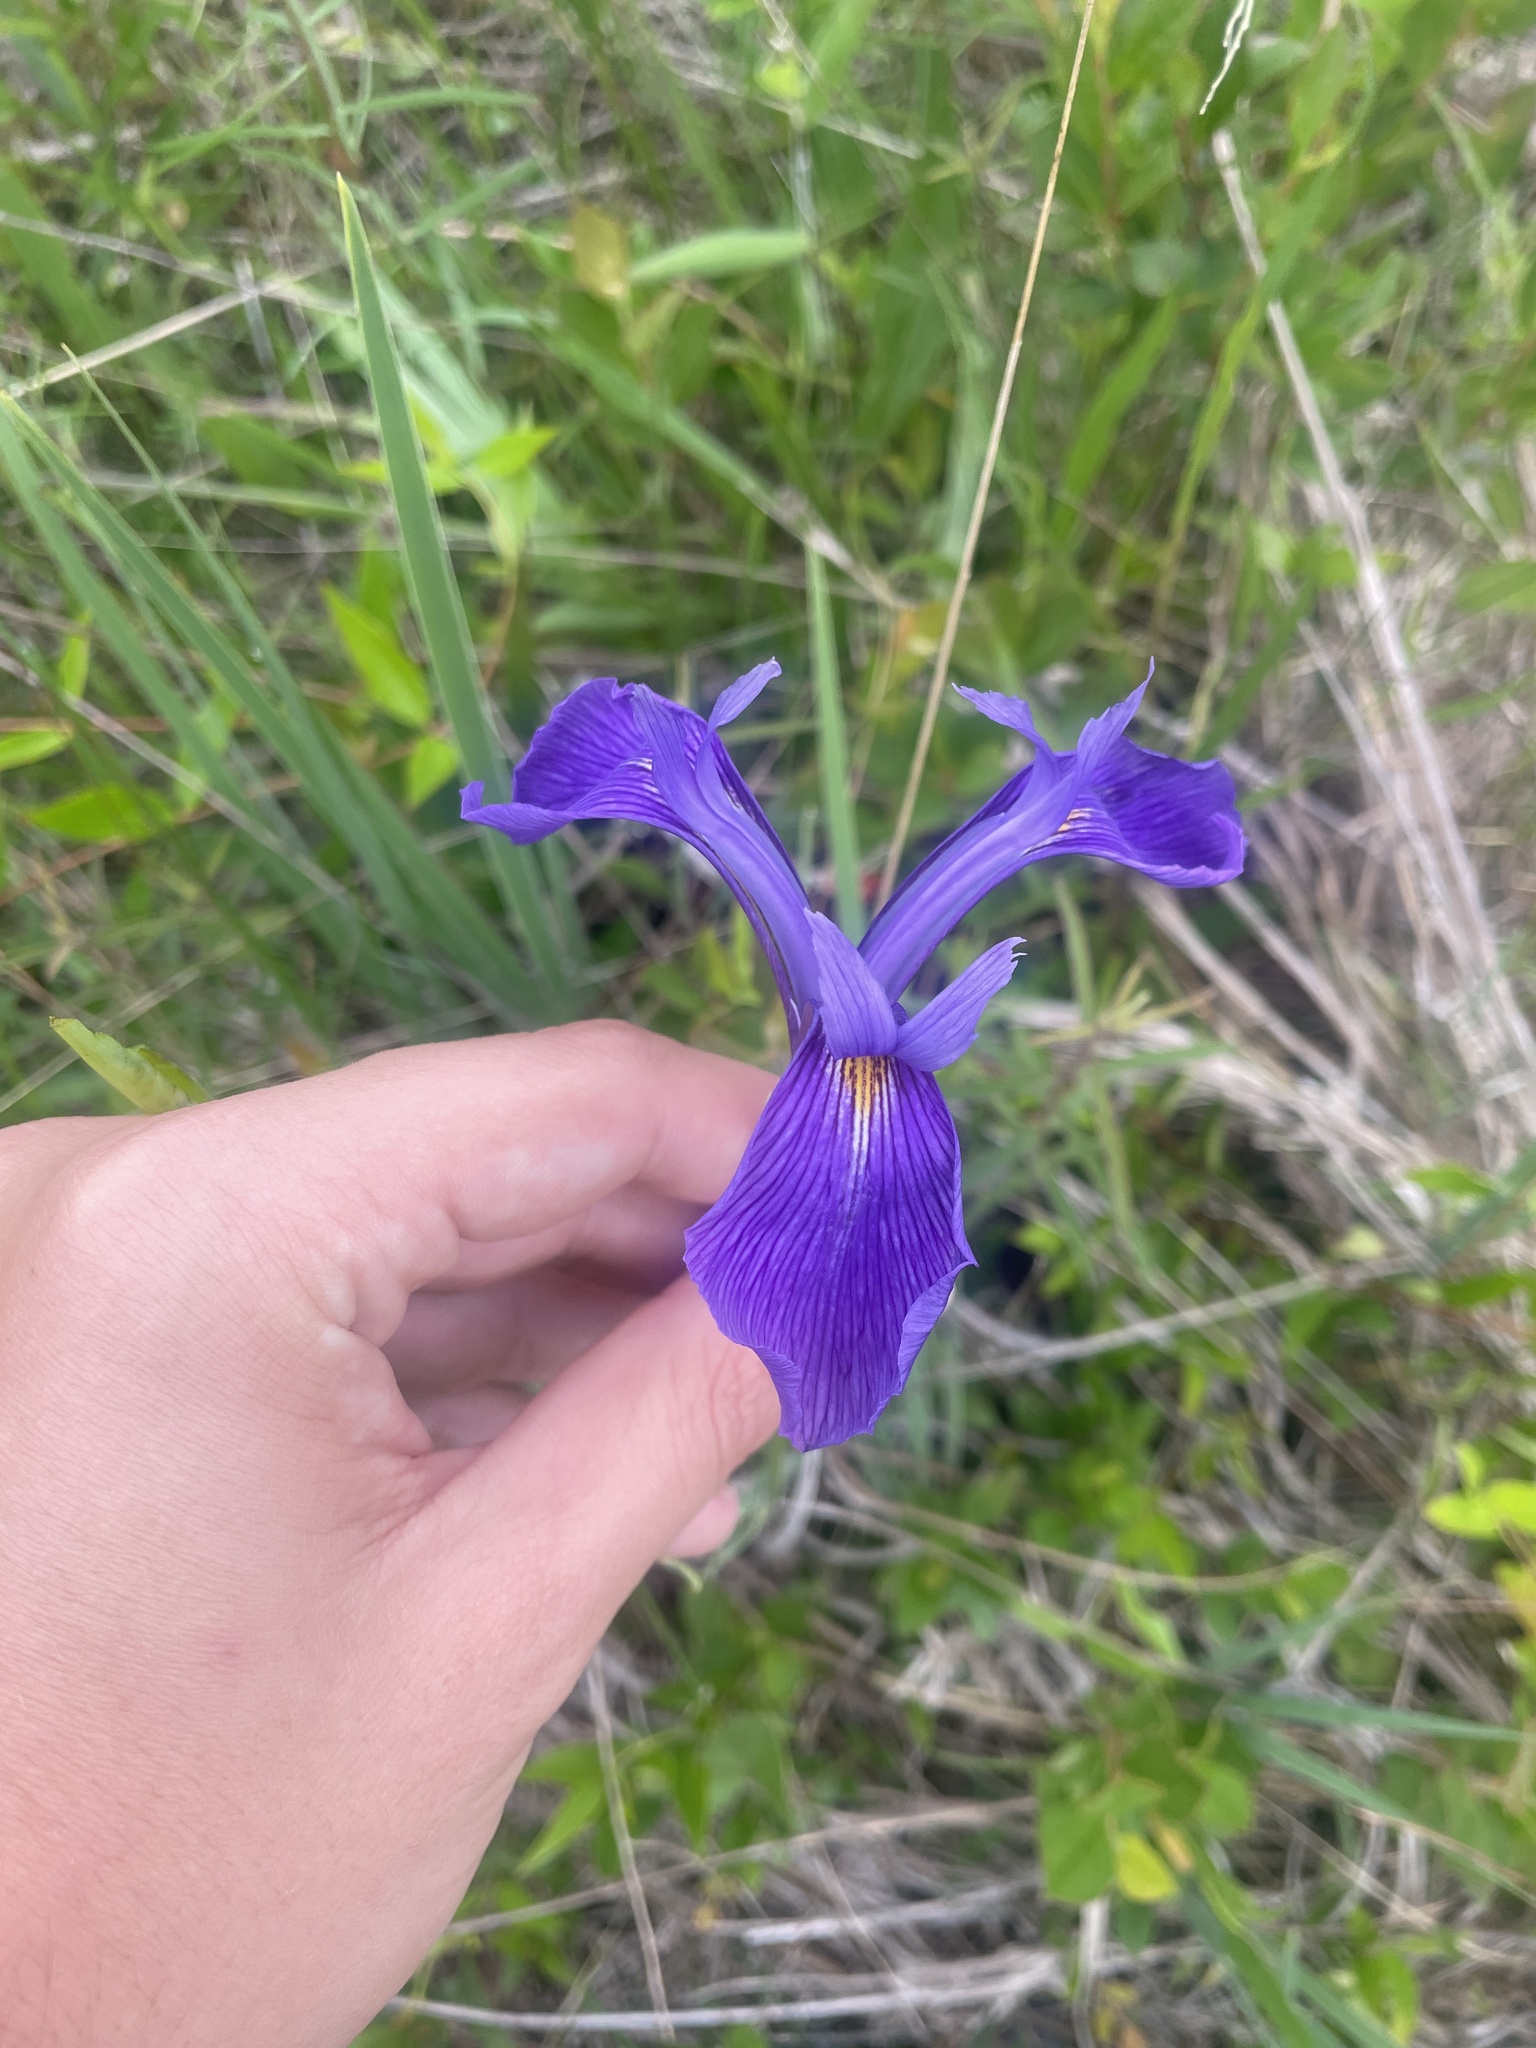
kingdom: Plantae
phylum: Tracheophyta
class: Liliopsida
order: Asparagales
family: Iridaceae
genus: Iris
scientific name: Iris tridentata
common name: Savannah iris
